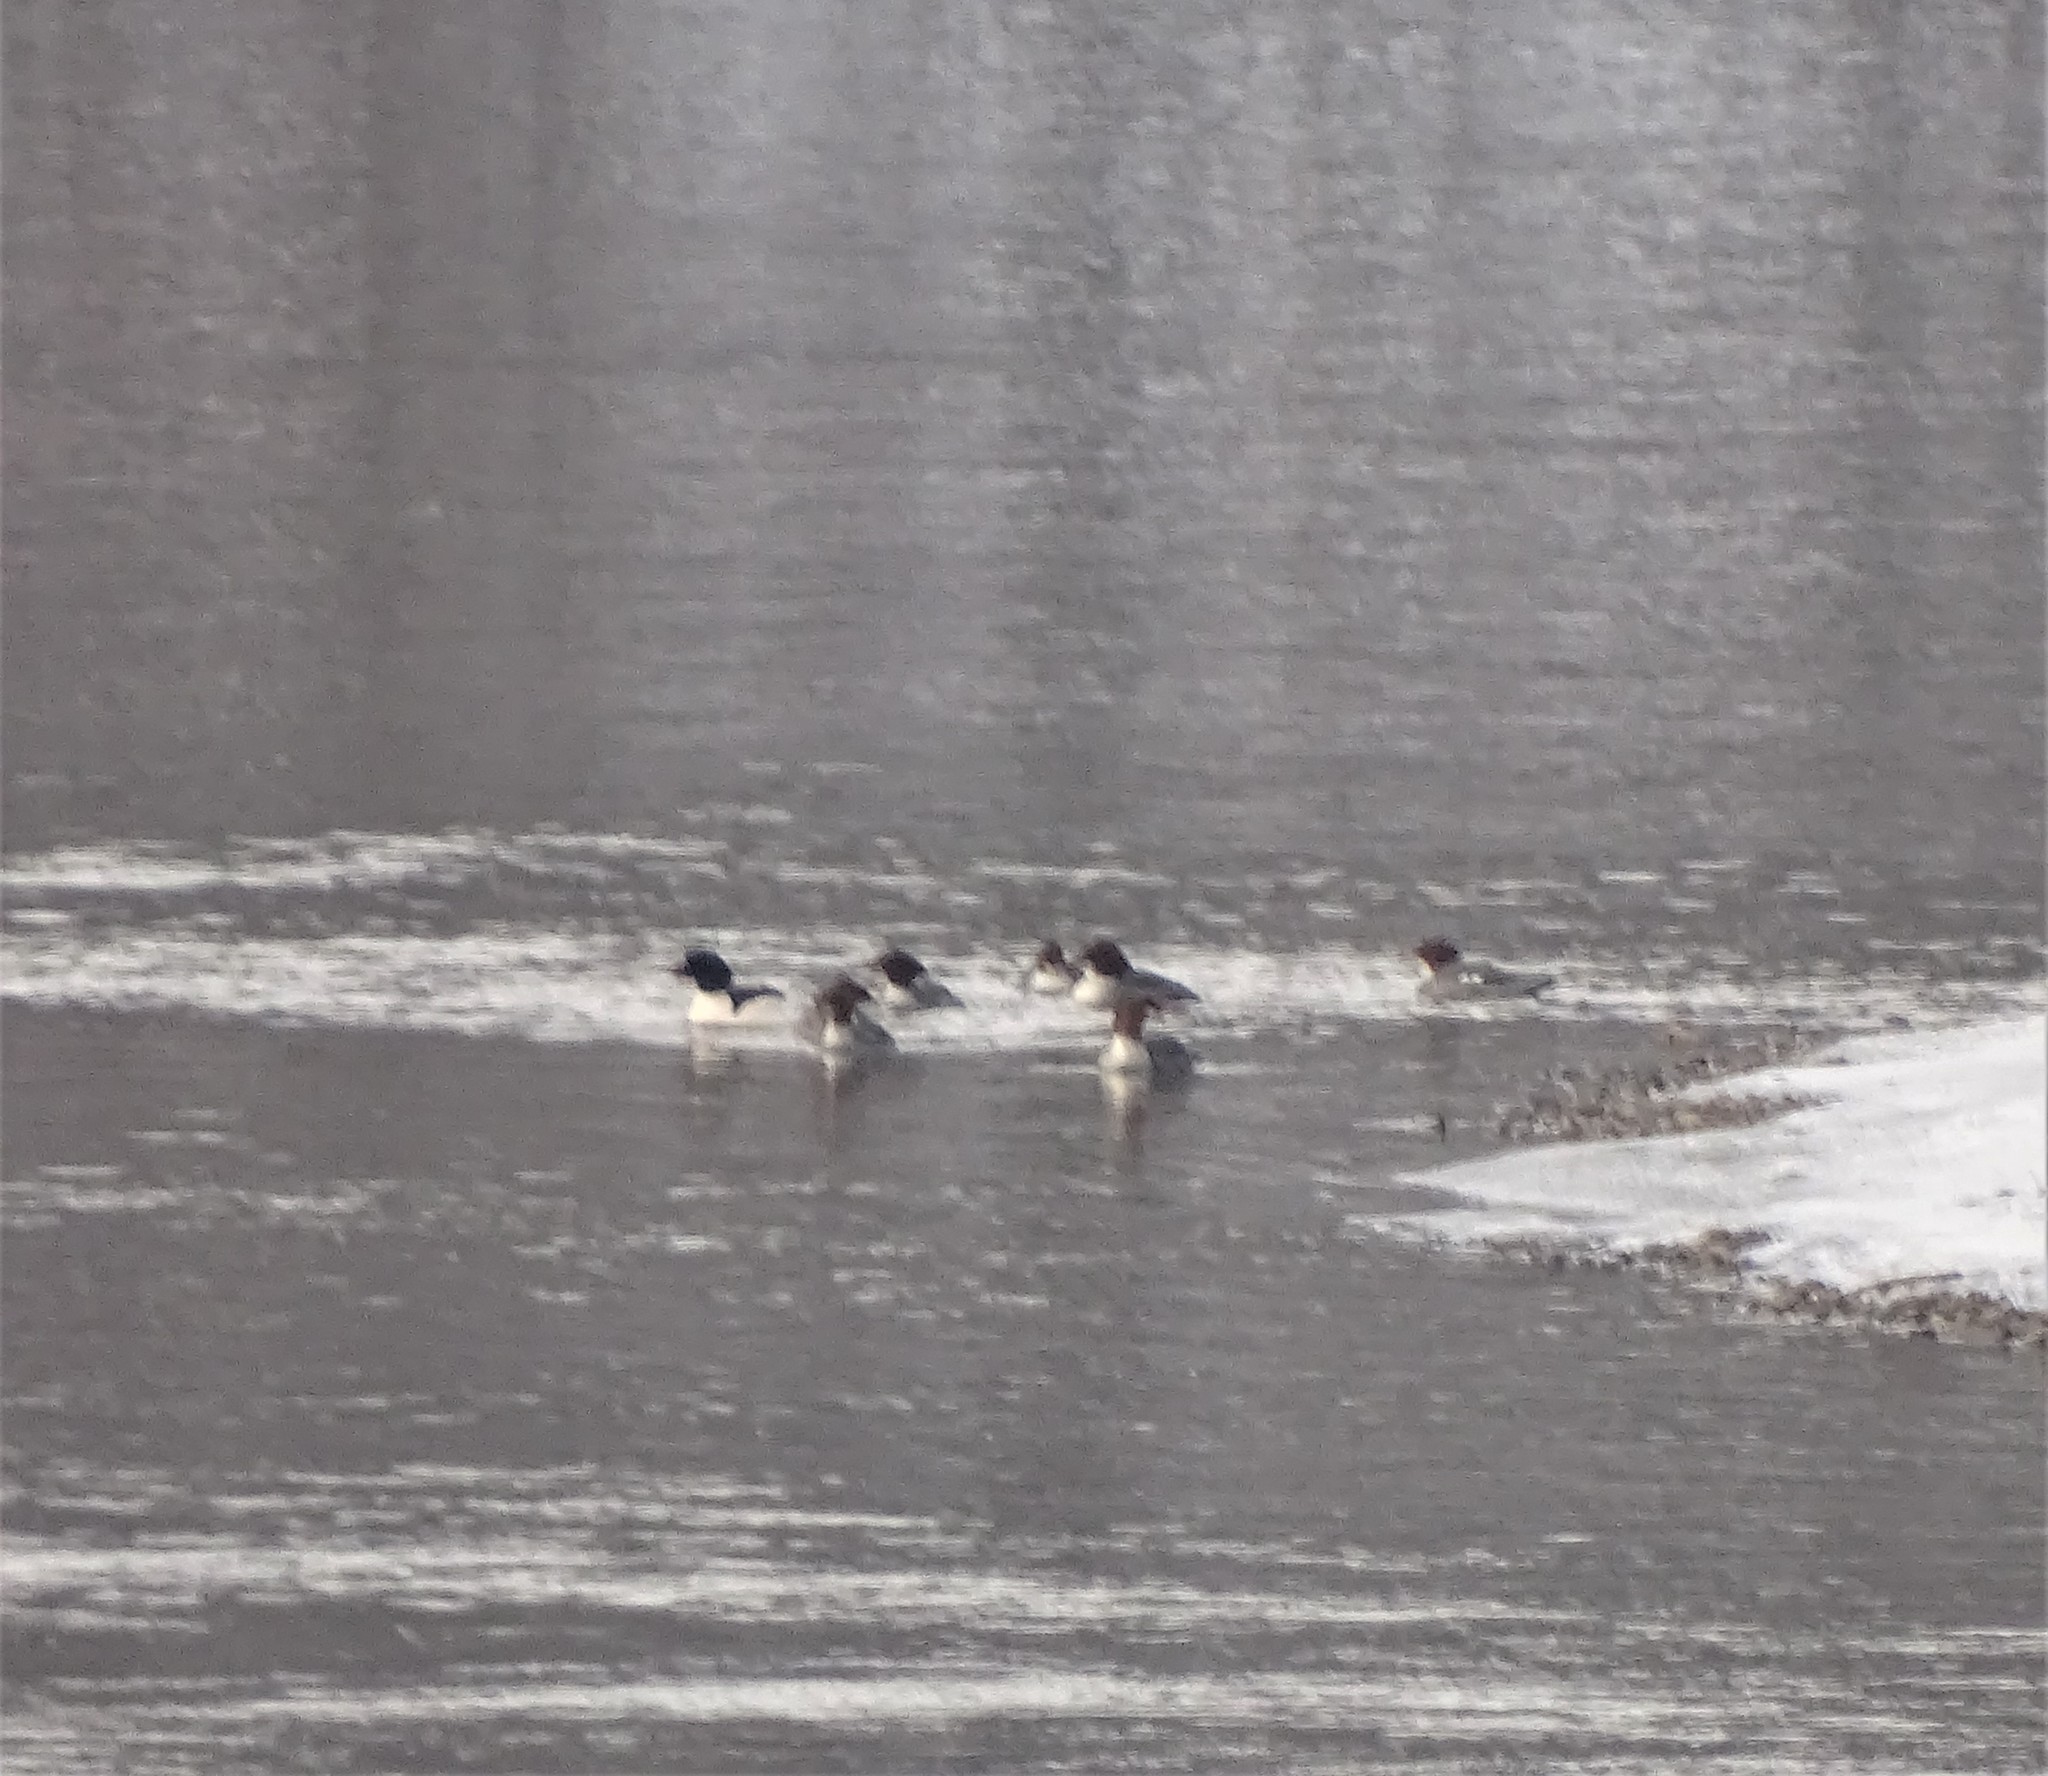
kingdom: Animalia
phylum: Chordata
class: Aves
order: Anseriformes
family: Anatidae
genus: Mergus
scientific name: Mergus merganser
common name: Common merganser
